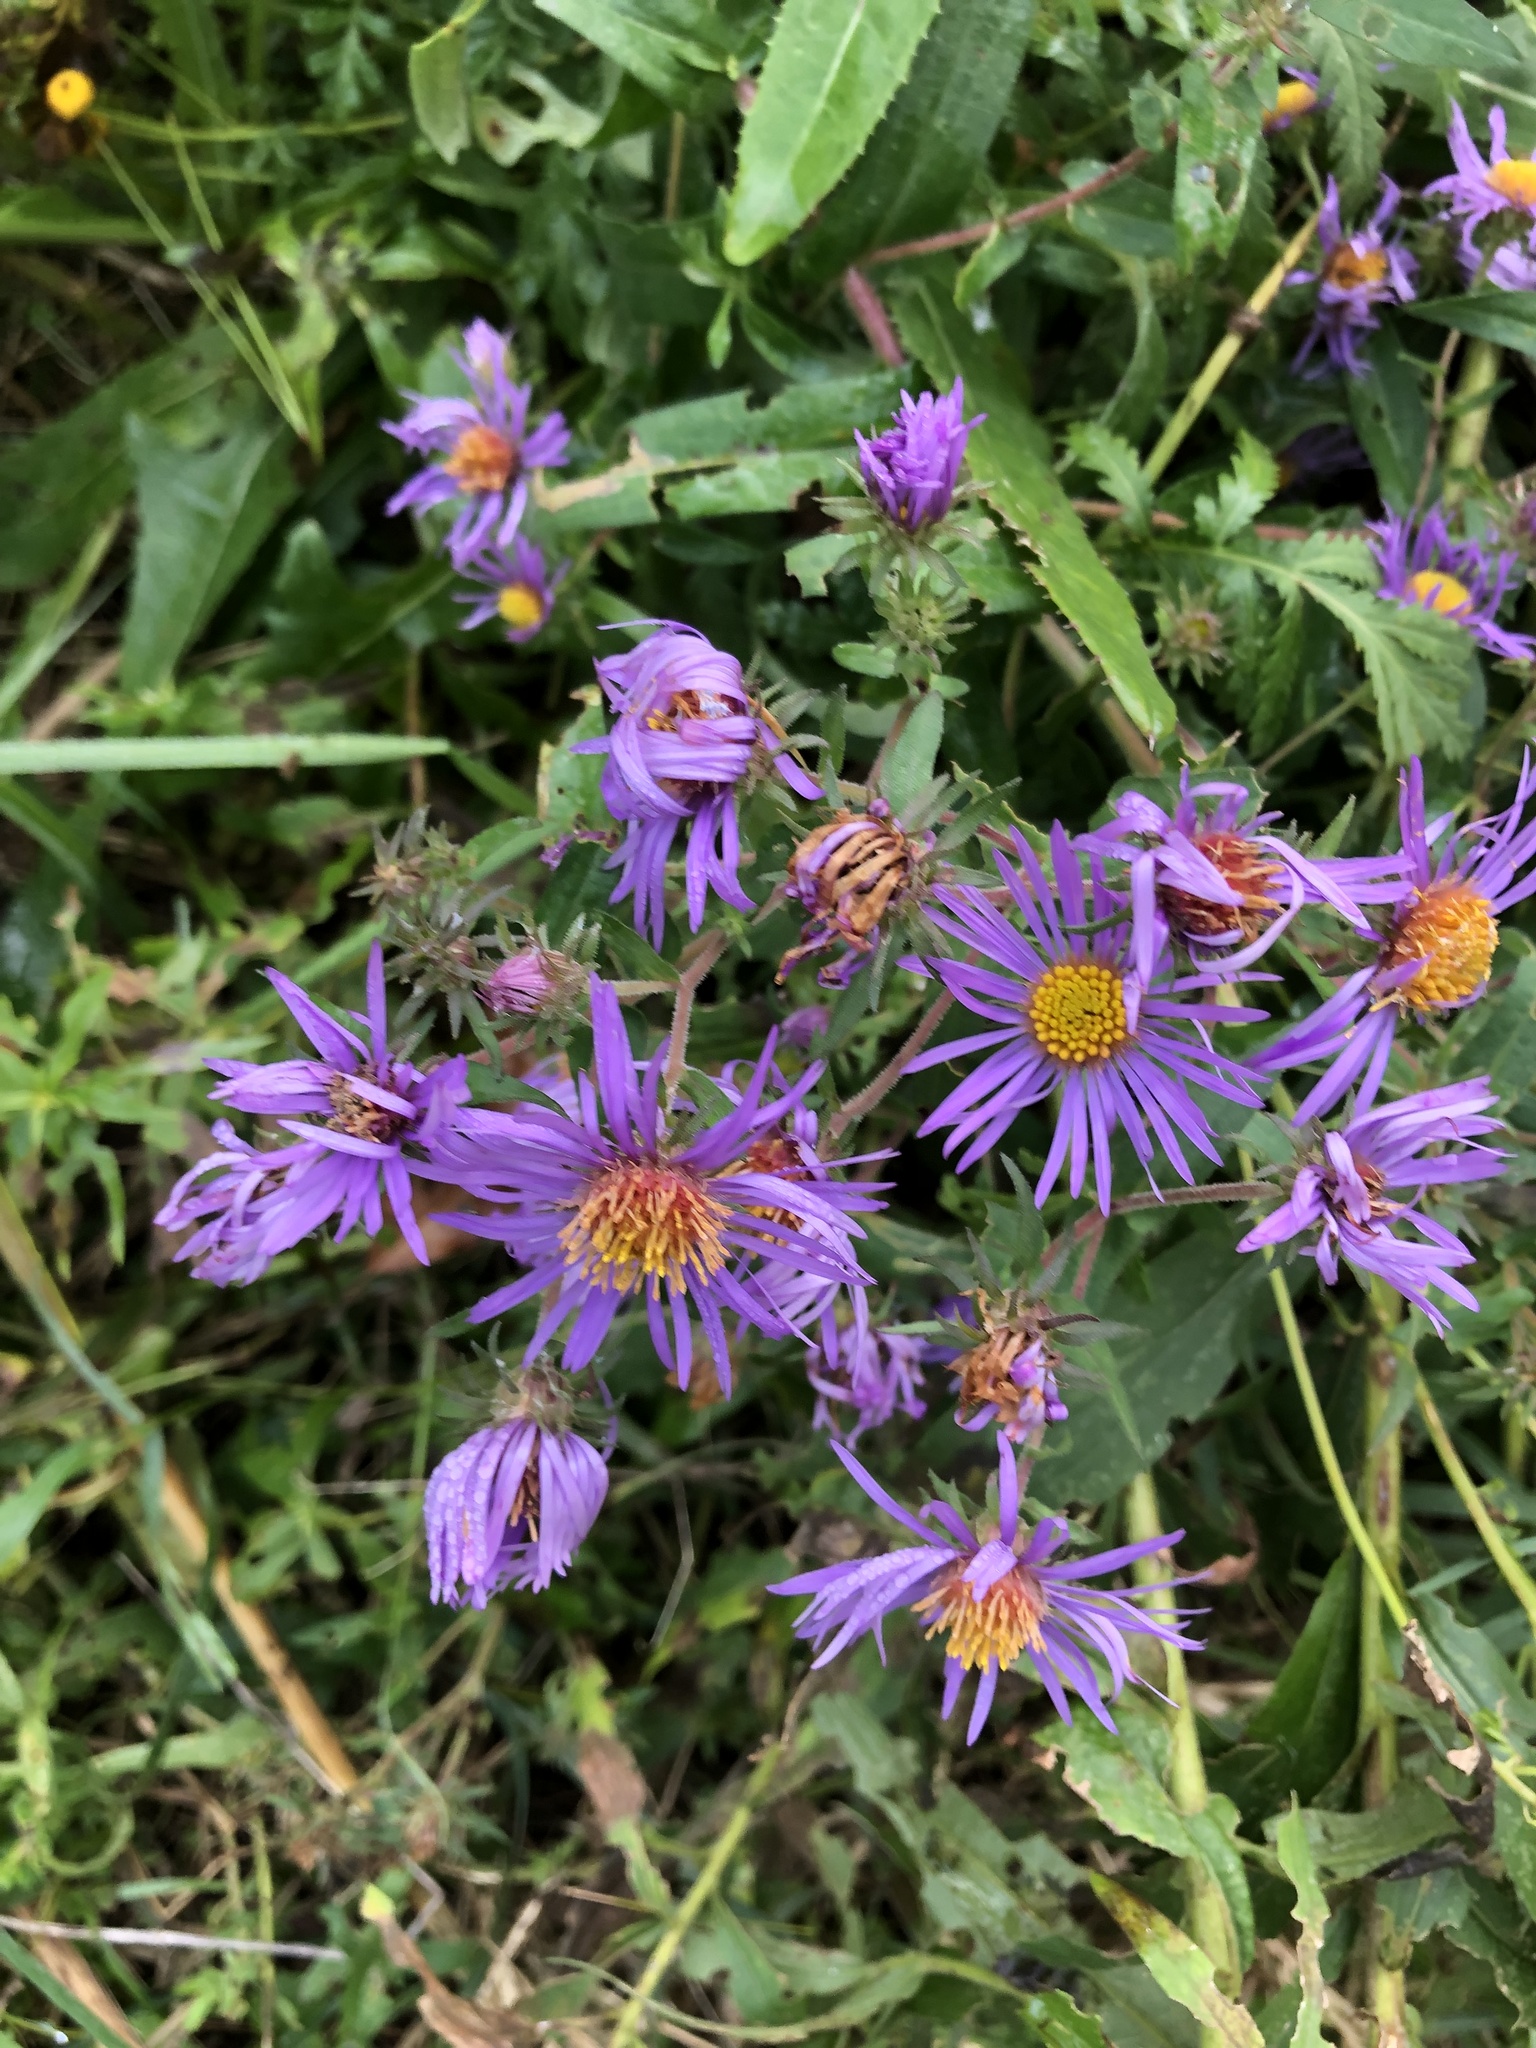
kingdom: Plantae
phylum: Tracheophyta
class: Magnoliopsida
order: Asterales
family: Asteraceae
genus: Symphyotrichum
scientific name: Symphyotrichum novae-angliae
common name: Michaelmas daisy
